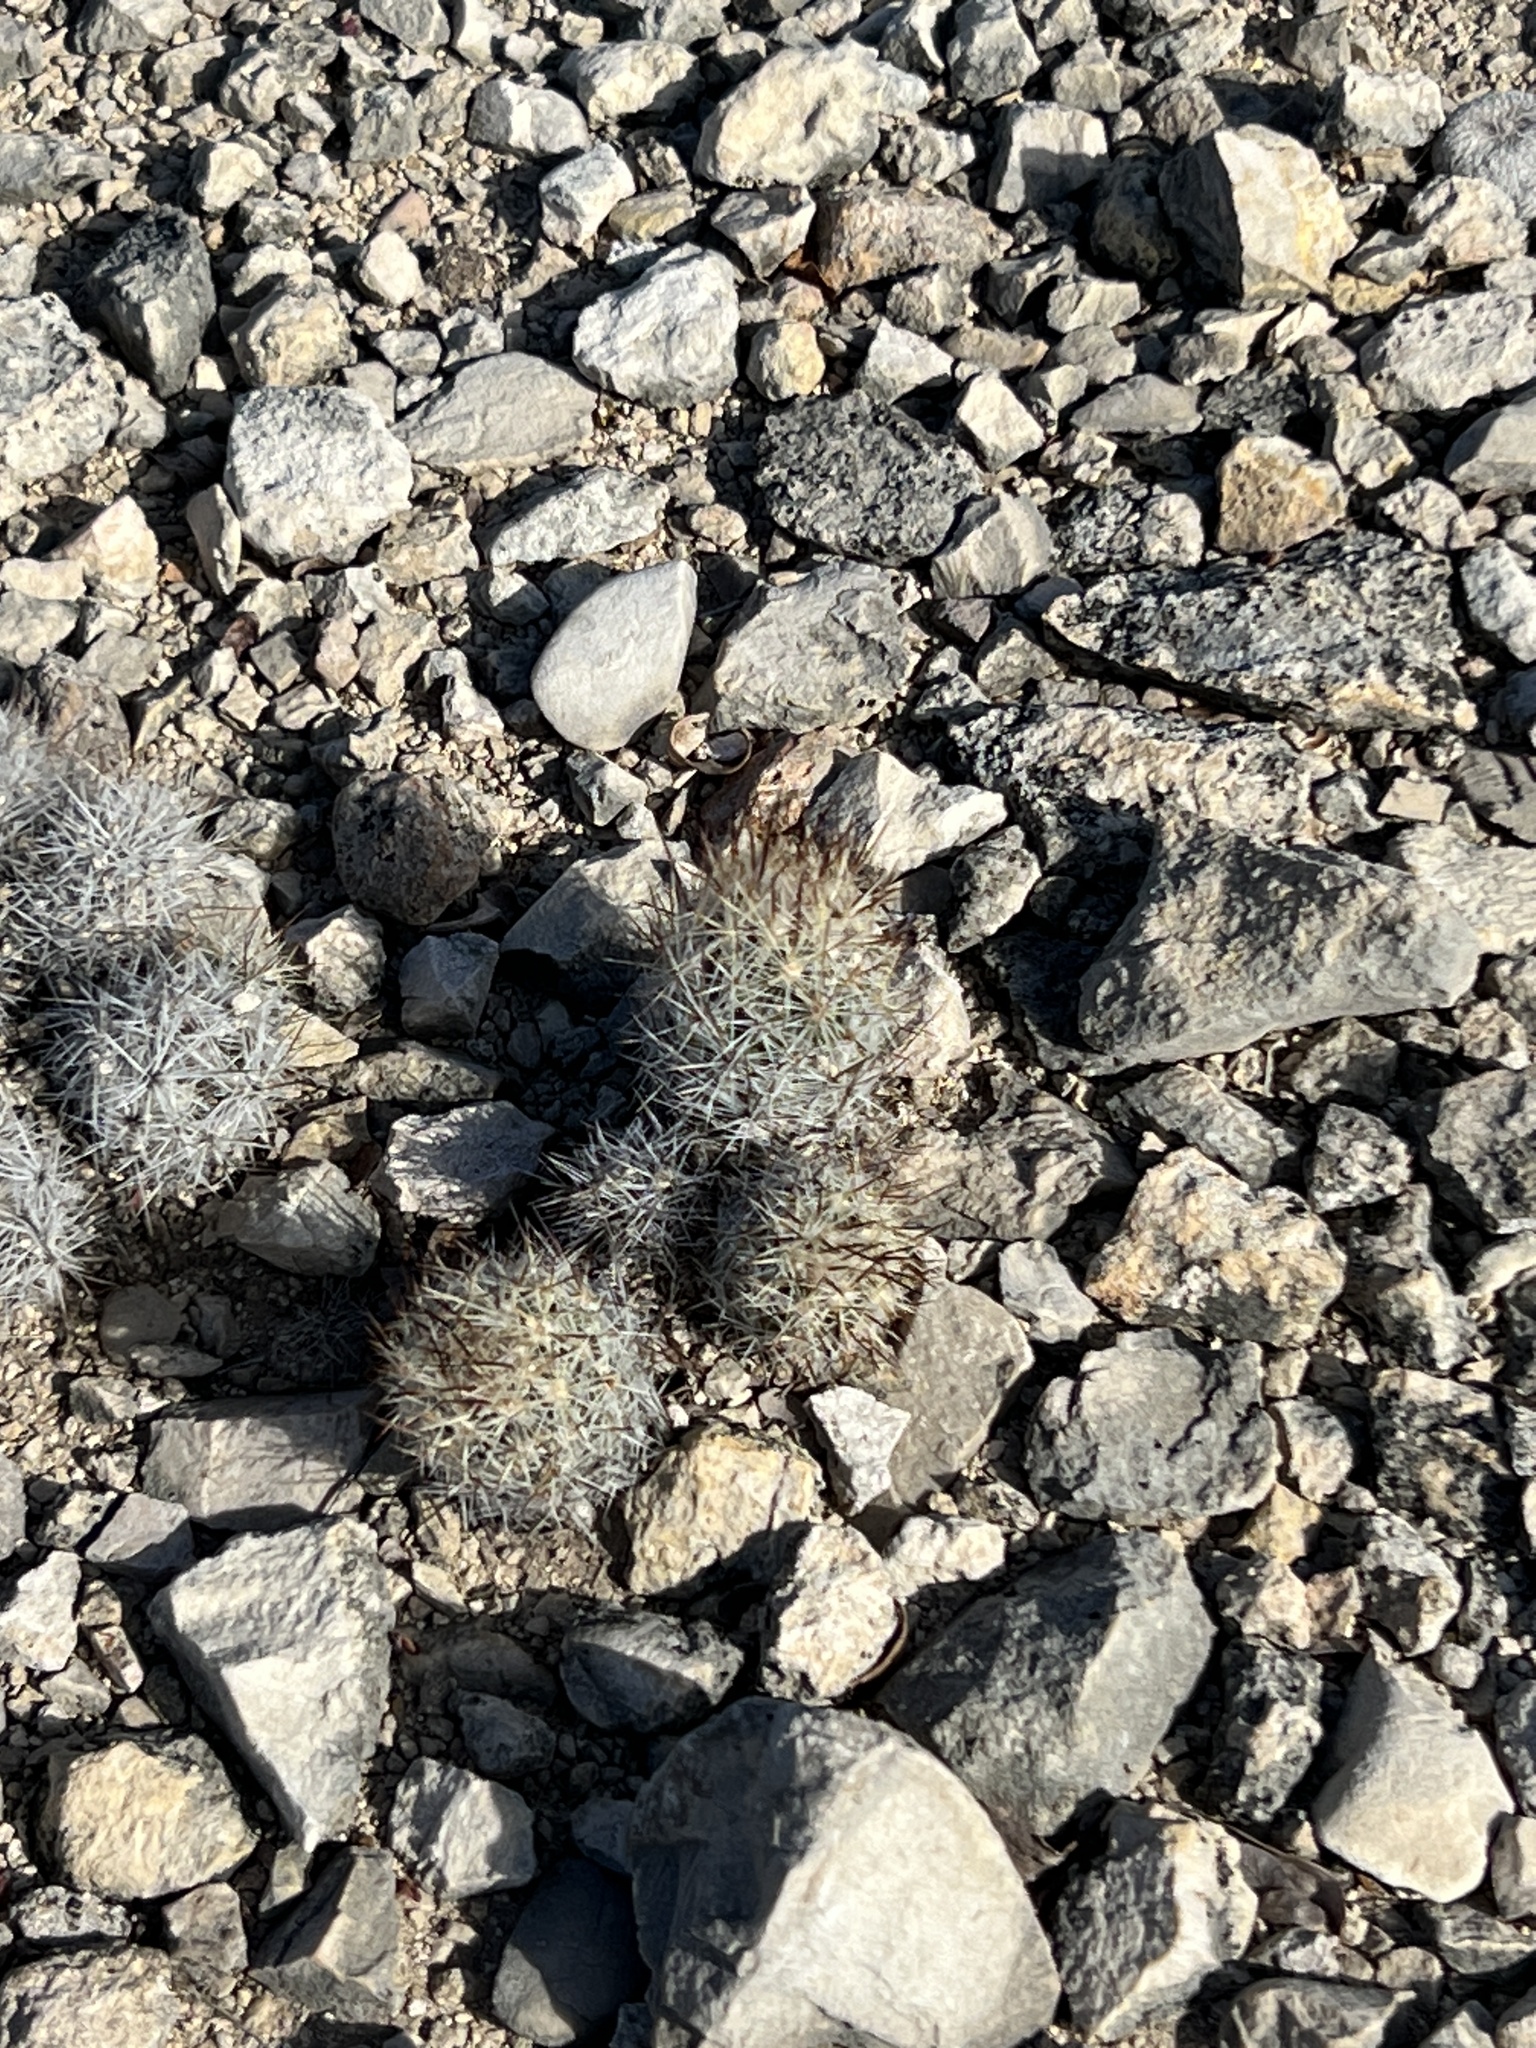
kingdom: Plantae
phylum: Tracheophyta
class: Magnoliopsida
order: Caryophyllales
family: Cactaceae
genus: Pelecyphora
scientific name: Pelecyphora emskoetteriana
